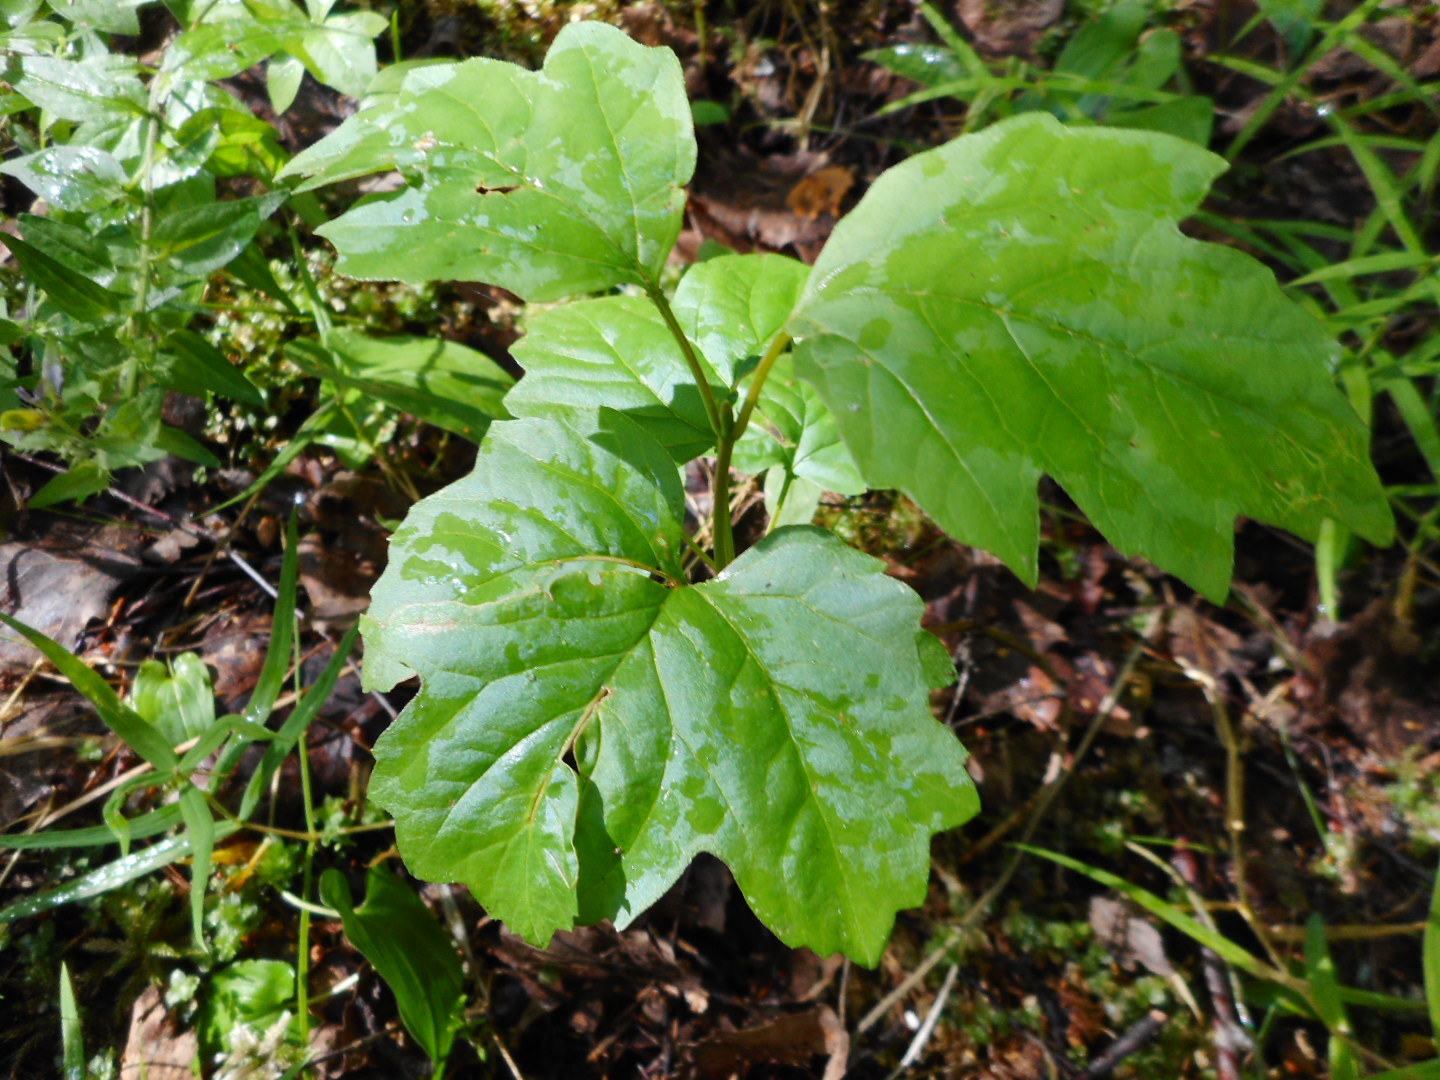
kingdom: Plantae
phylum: Tracheophyta
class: Magnoliopsida
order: Dipsacales
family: Viburnaceae
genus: Viburnum
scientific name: Viburnum opulus
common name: Guelder-rose
